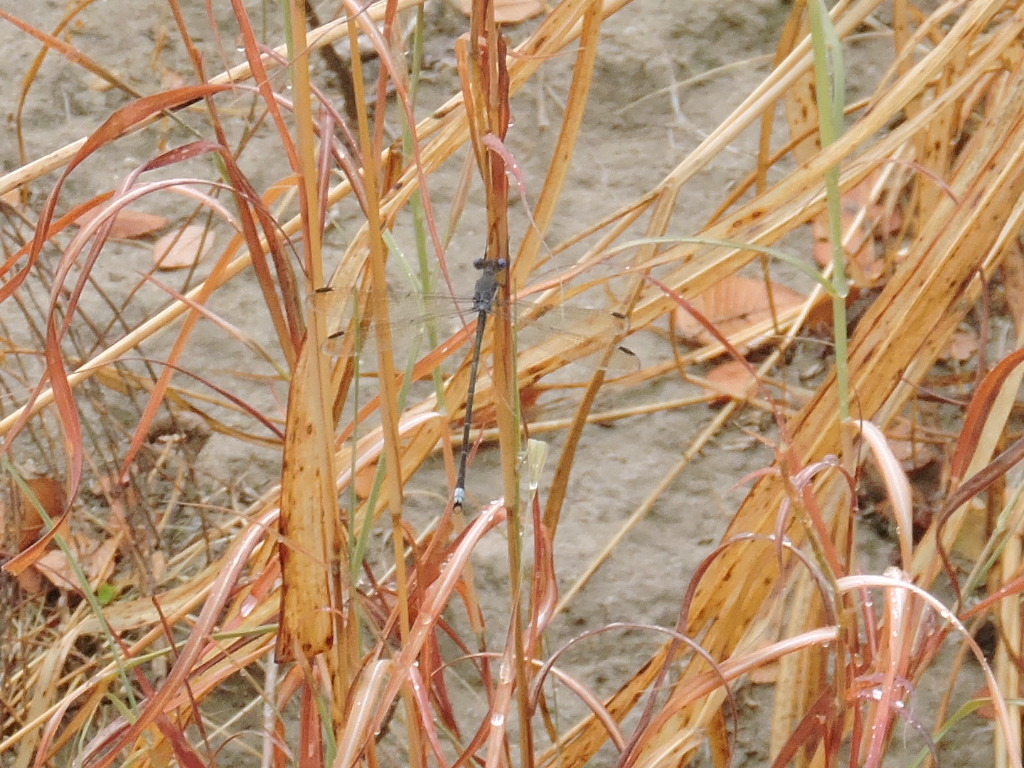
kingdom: Animalia
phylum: Arthropoda
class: Insecta
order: Odonata
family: Lestidae
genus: Archilestes
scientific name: Archilestes grandis
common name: Great spreadwing
